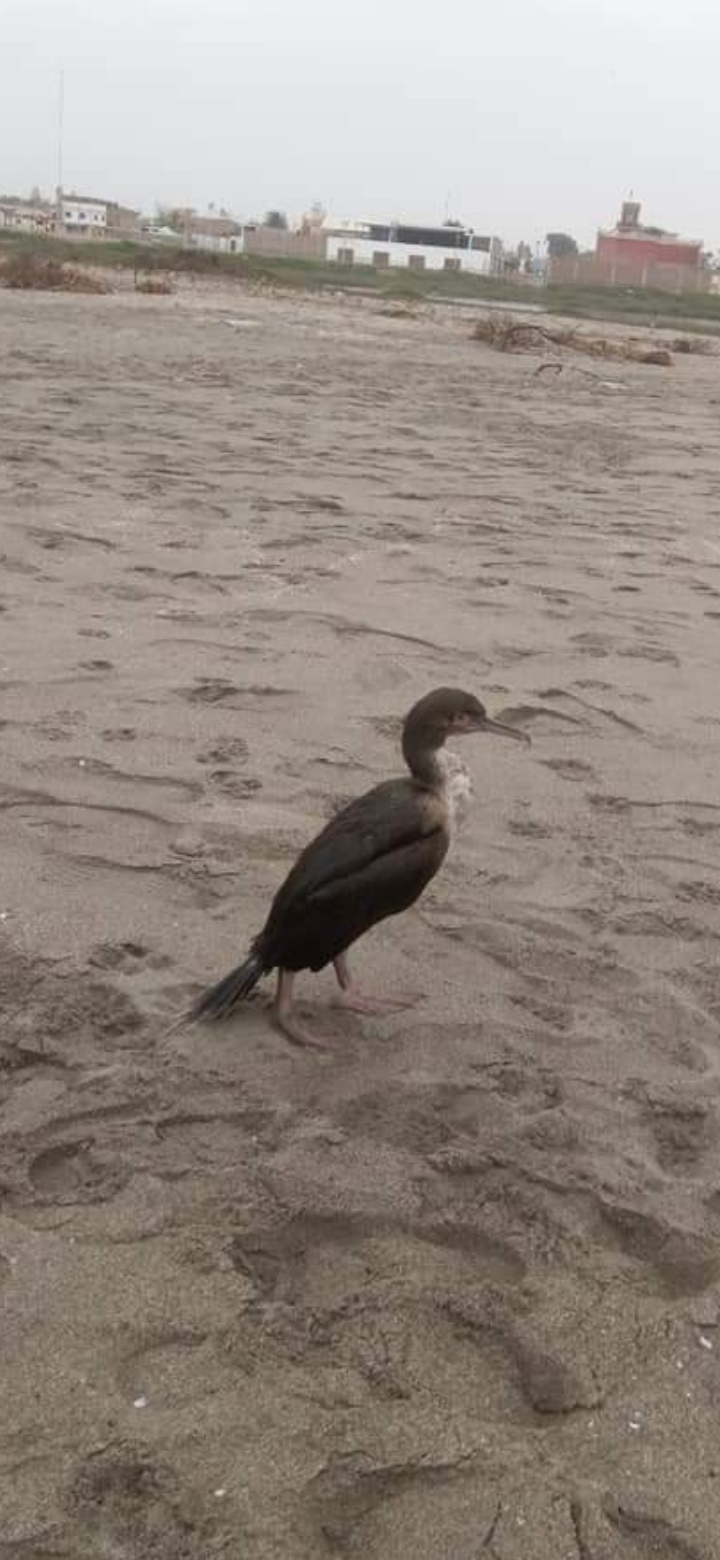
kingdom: Animalia
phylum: Chordata
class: Aves
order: Suliformes
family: Phalacrocoracidae
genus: Leucocarbo
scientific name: Leucocarbo bougainvillii
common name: Guanay cormorant
